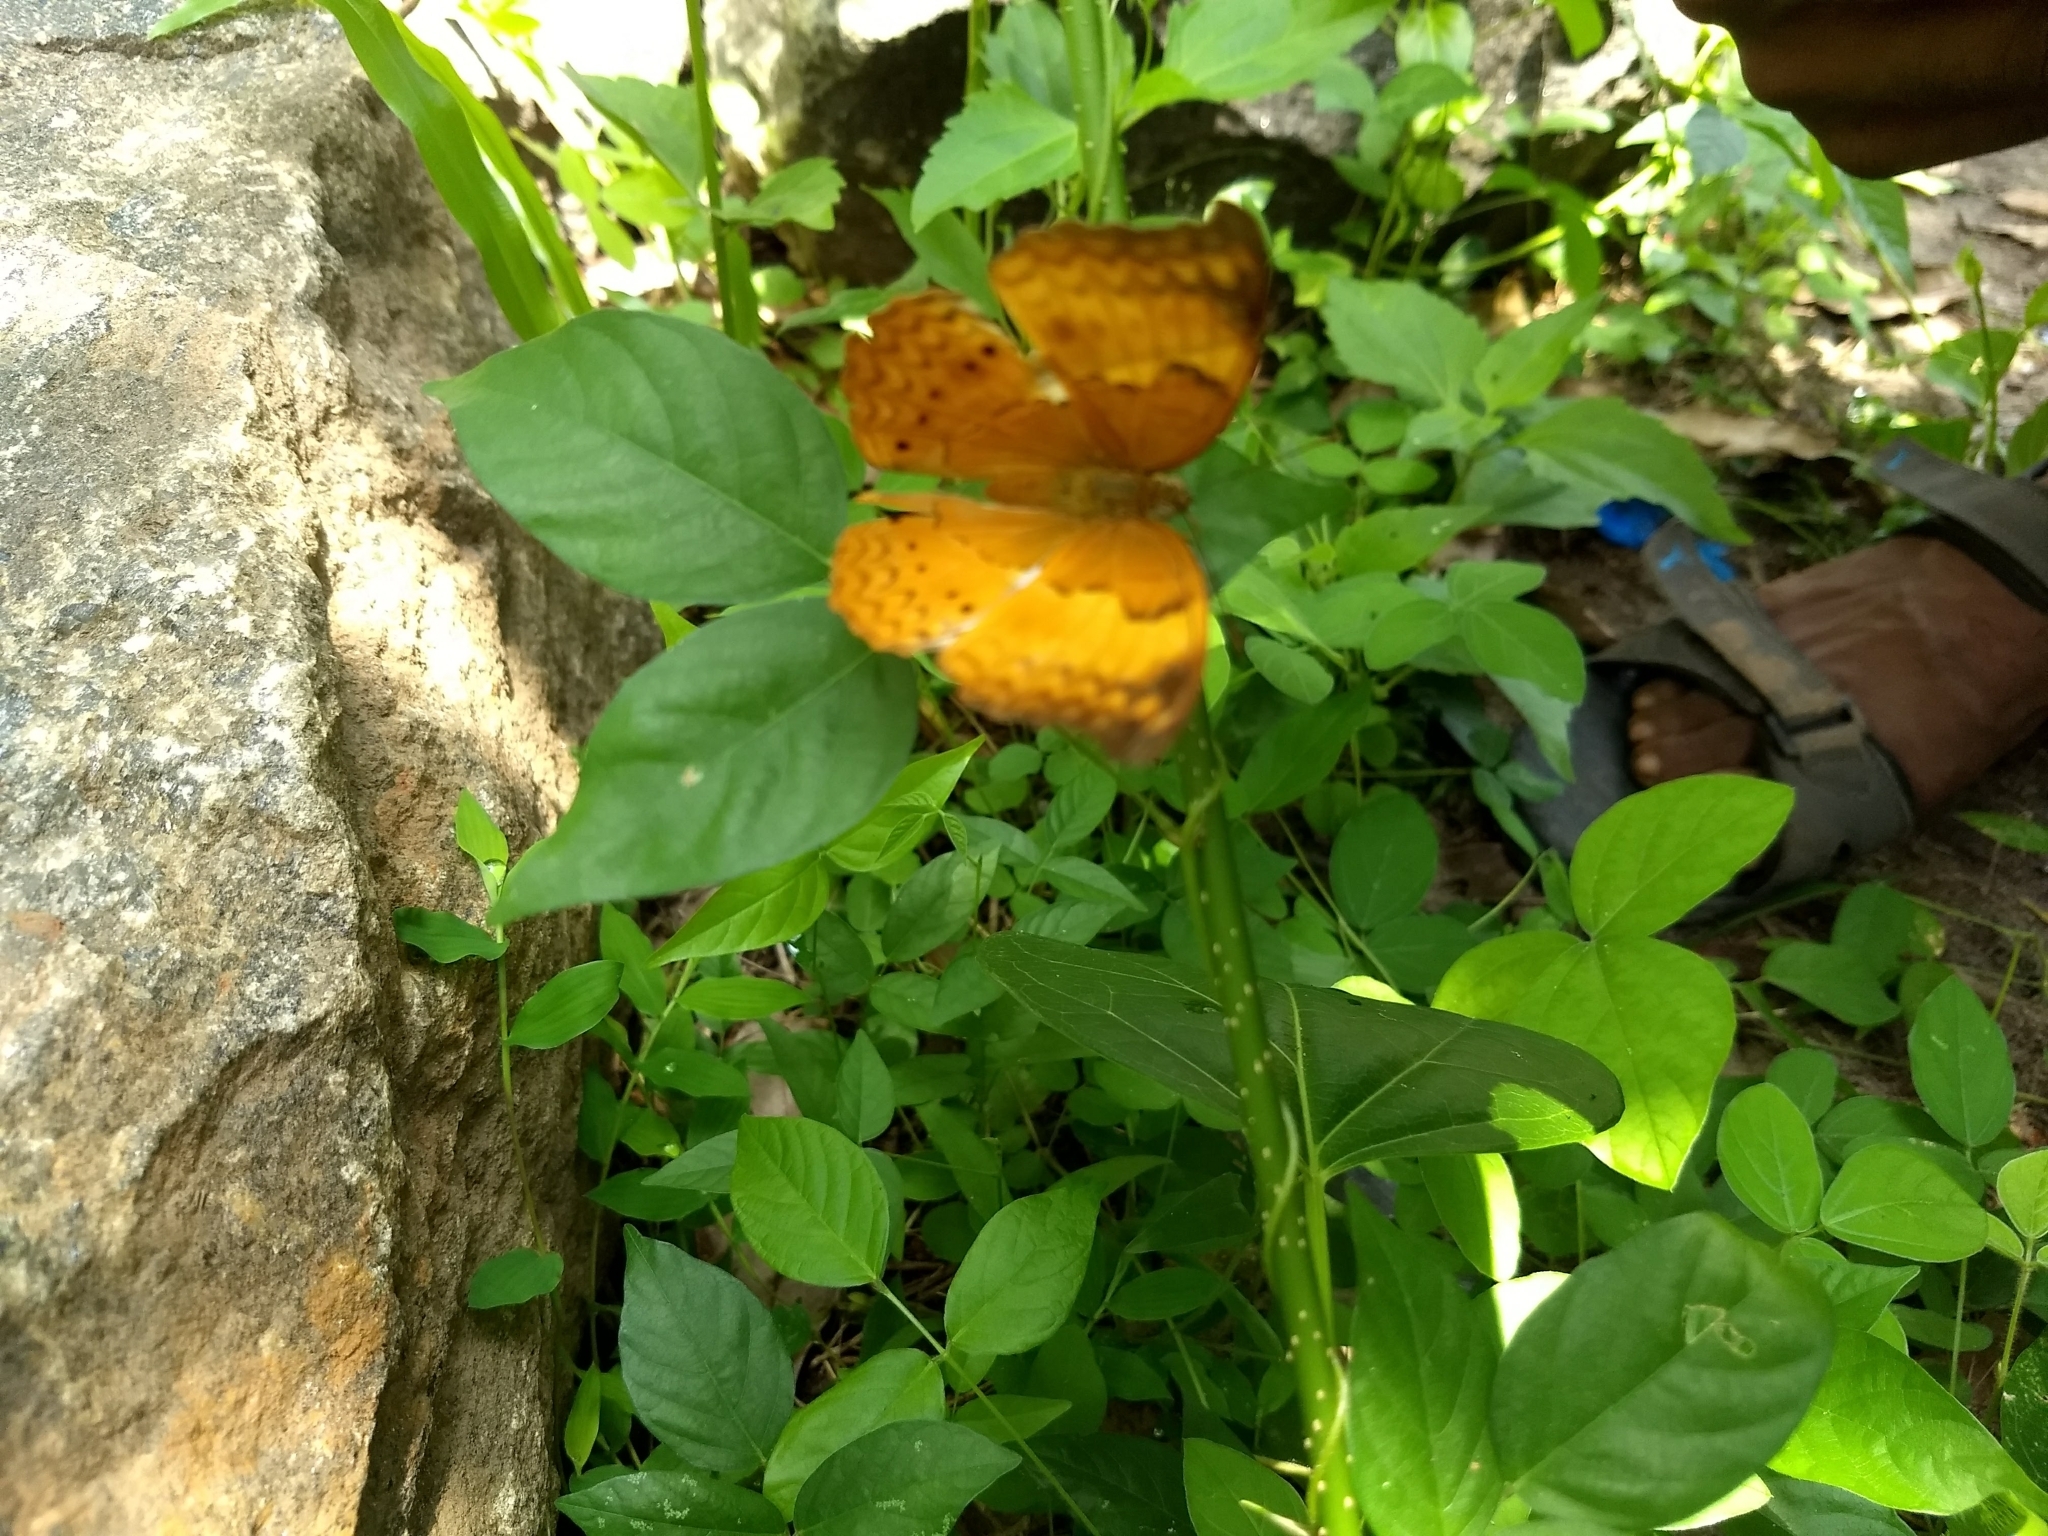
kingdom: Animalia
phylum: Arthropoda
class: Insecta
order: Lepidoptera
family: Nymphalidae
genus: Cirrochroa
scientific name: Cirrochroa thais
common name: Tamil yeoman
